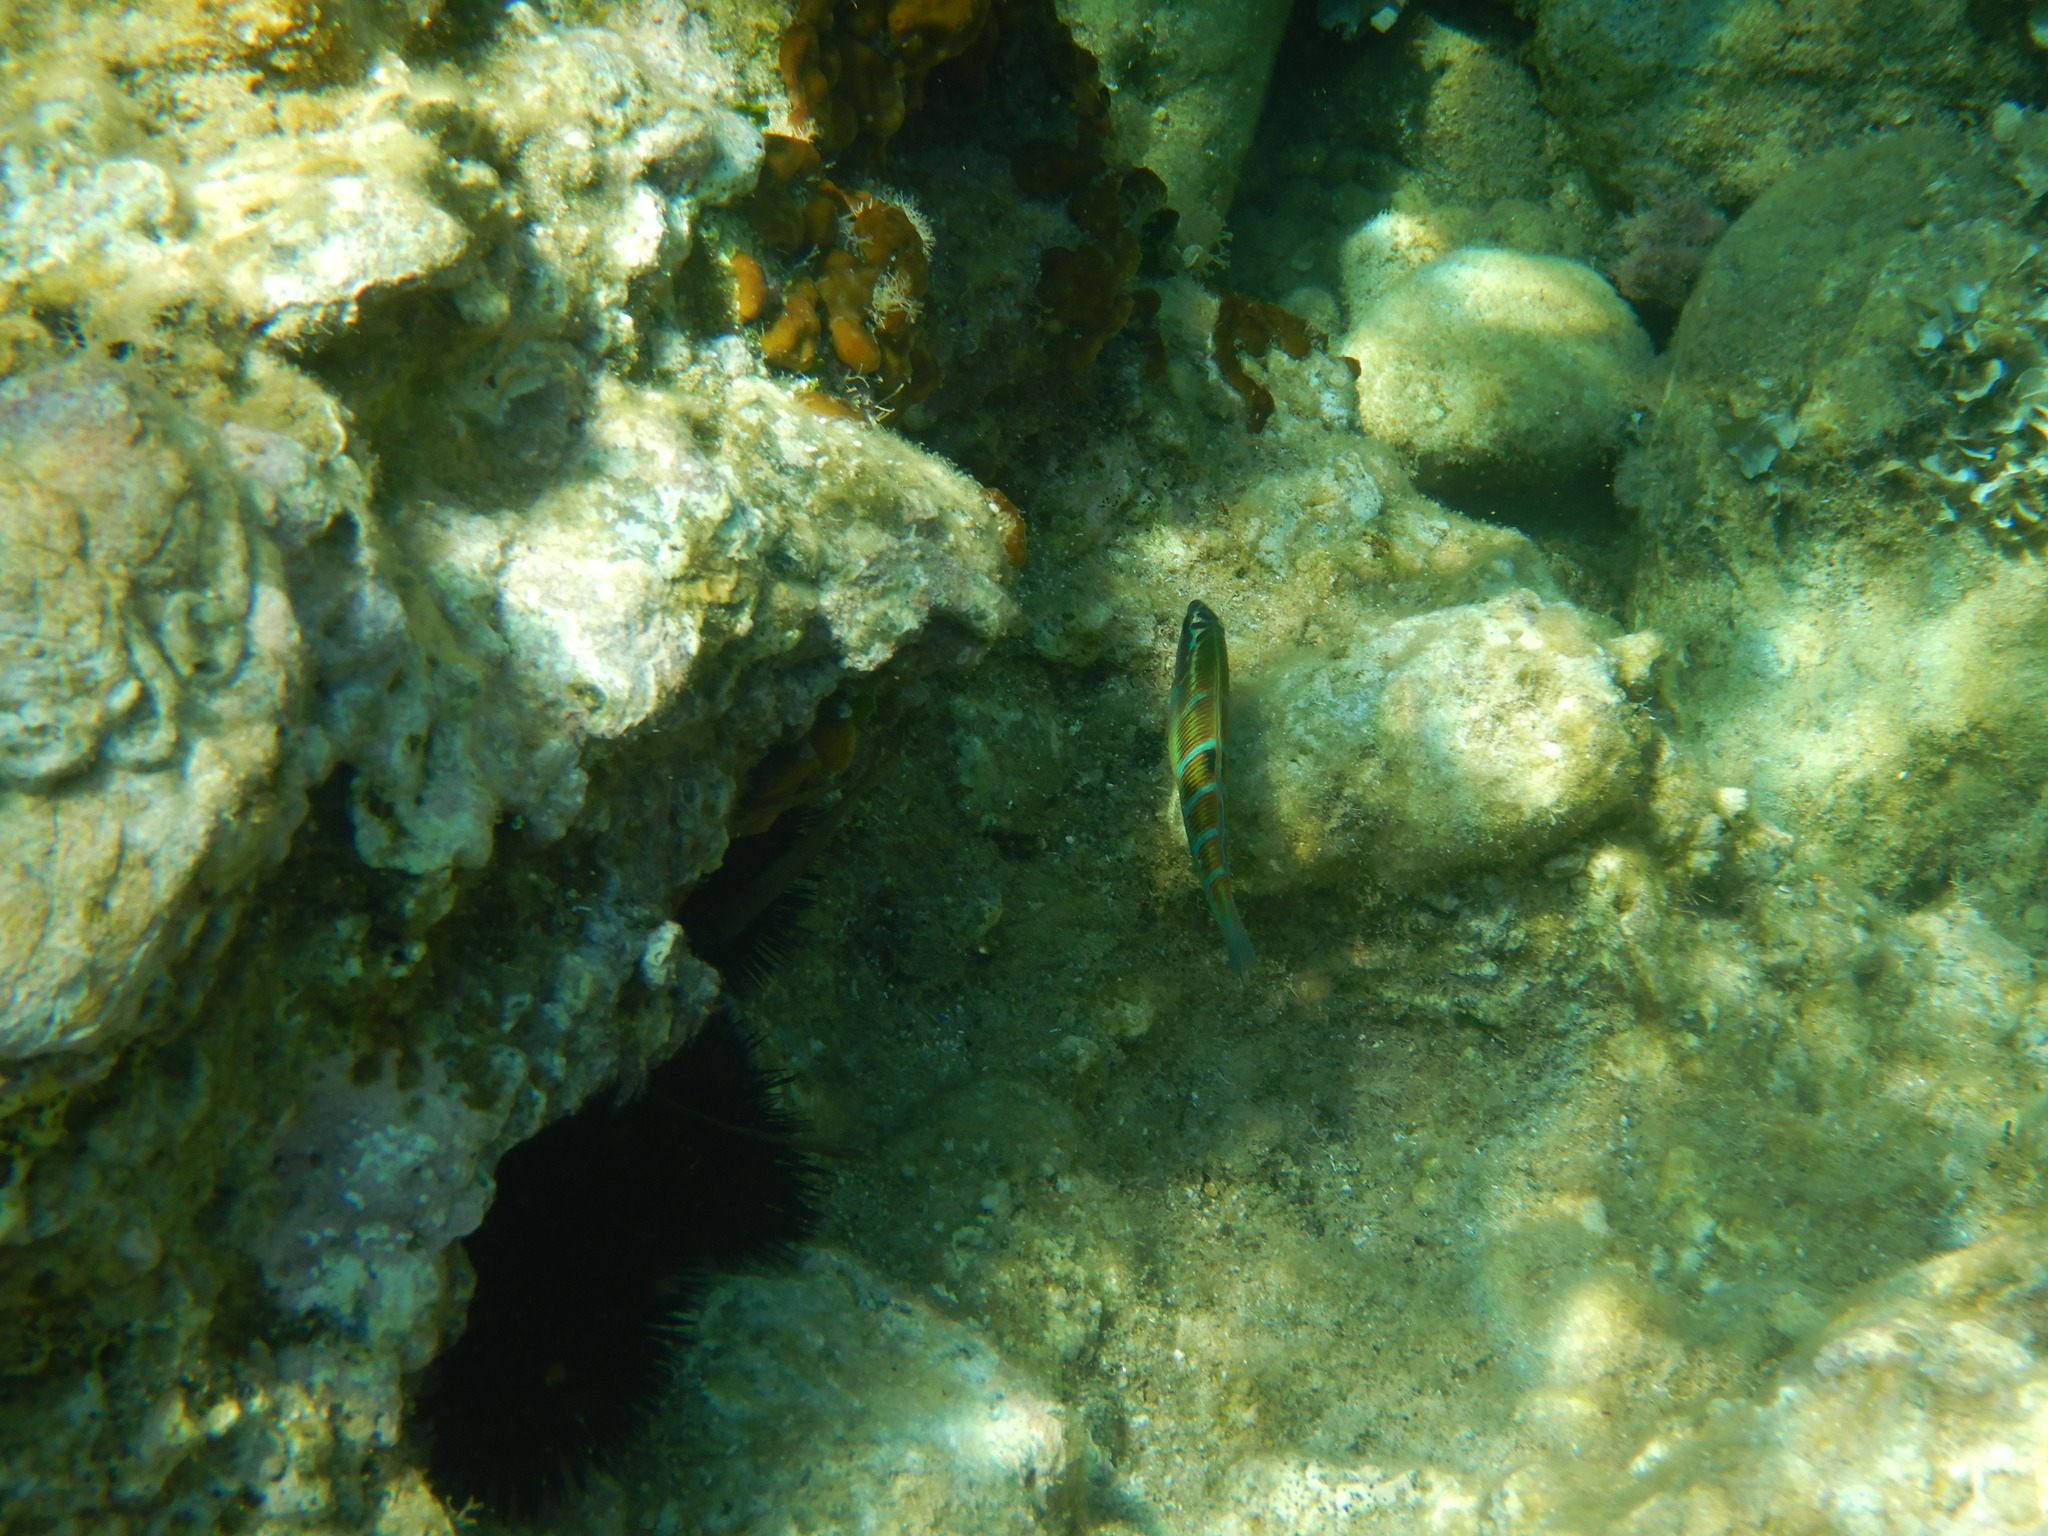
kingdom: Animalia
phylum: Chordata
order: Perciformes
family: Labridae
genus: Thalassoma
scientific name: Thalassoma pavo
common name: Ornate wrasse
